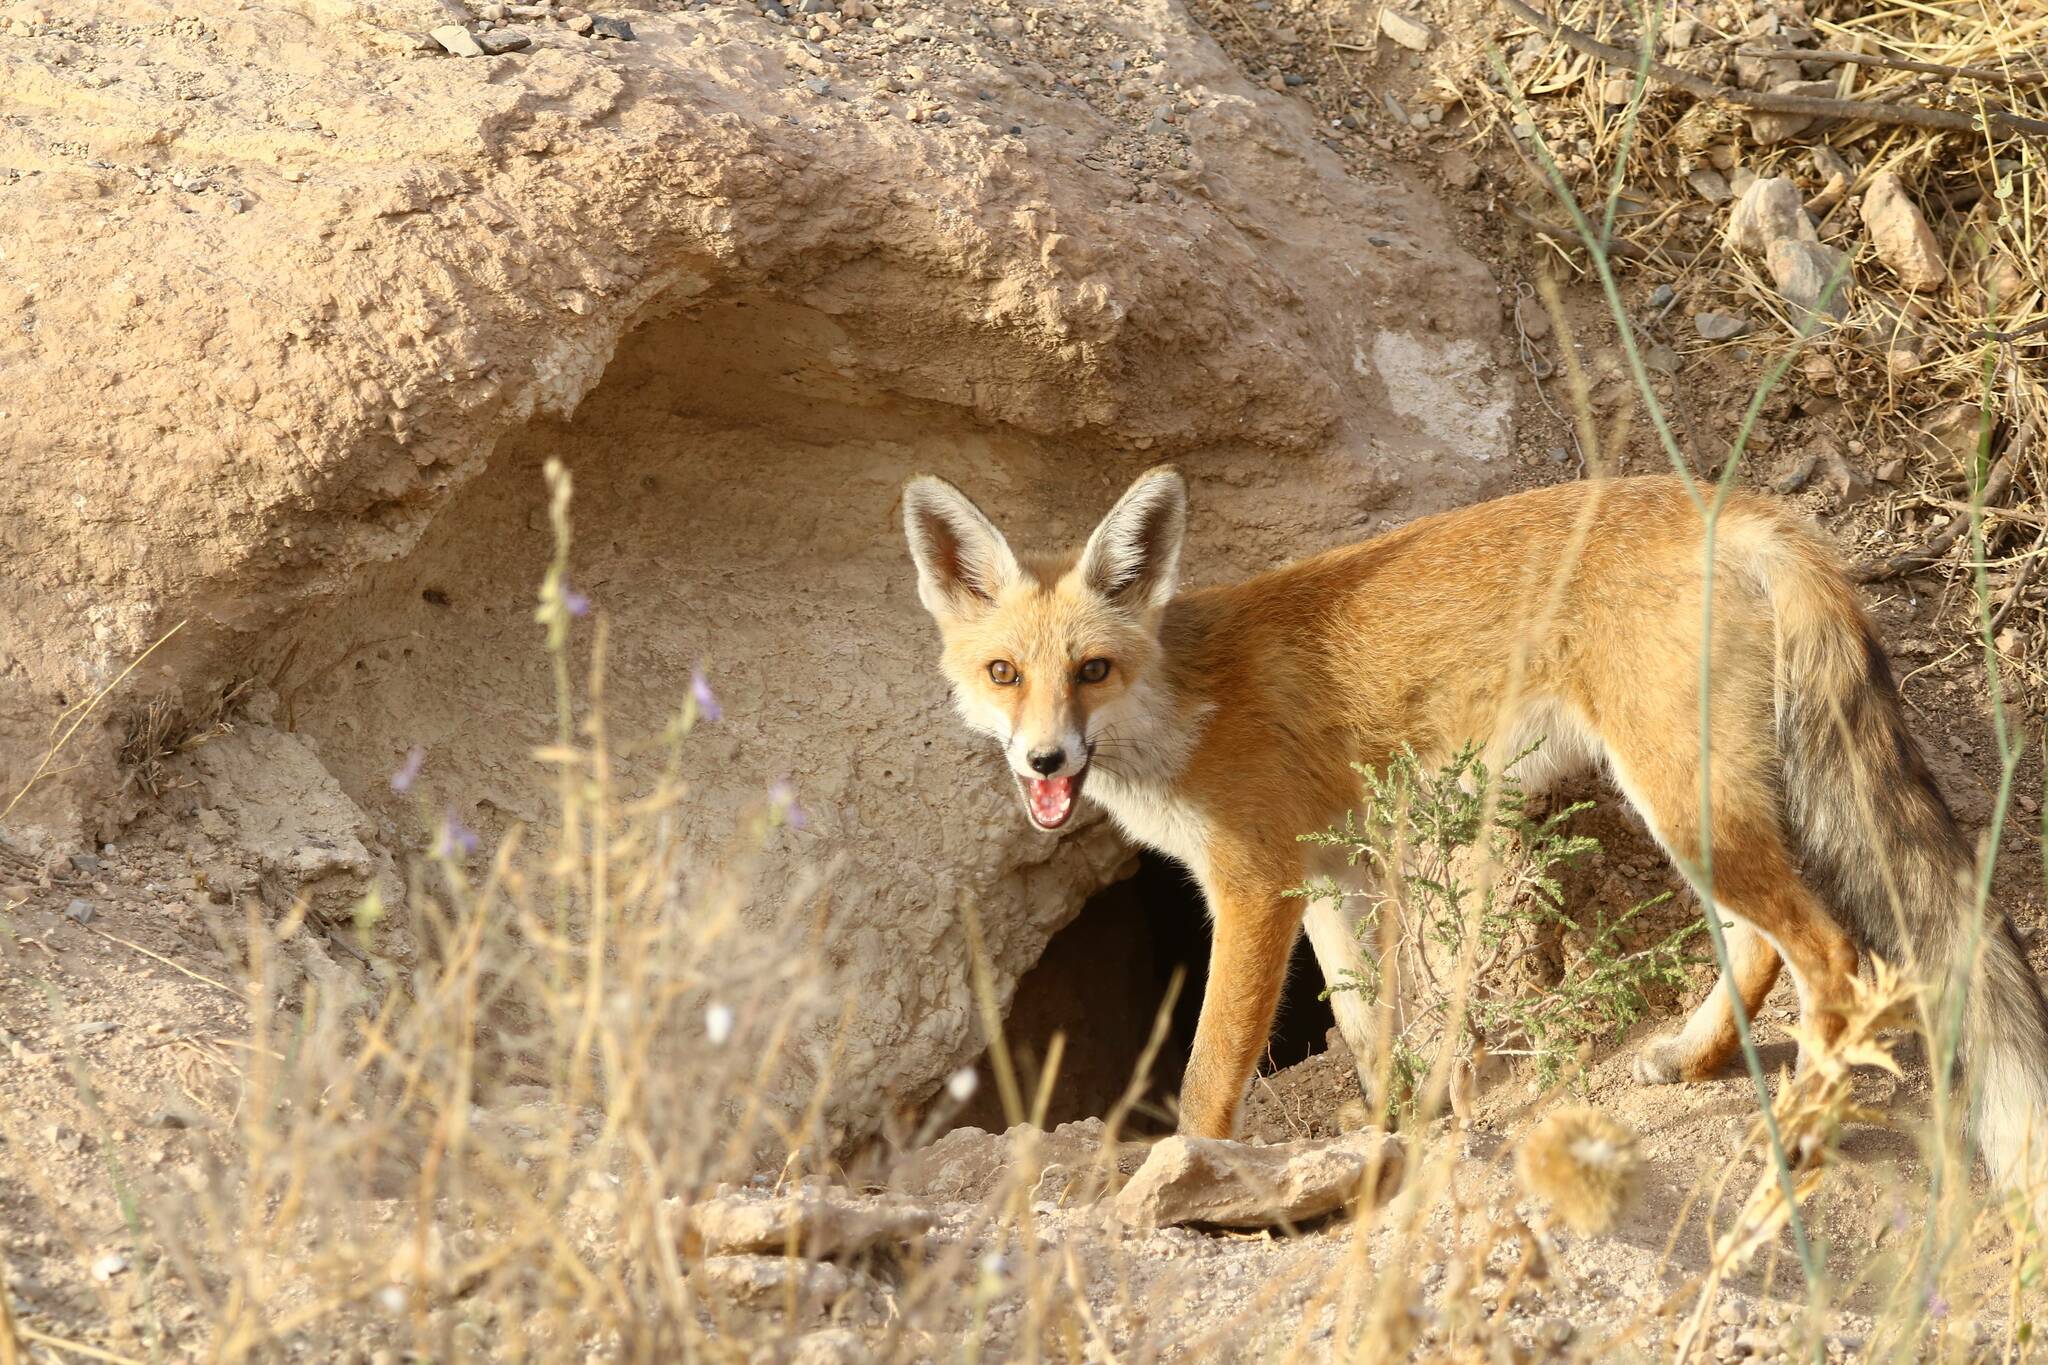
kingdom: Animalia
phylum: Chordata
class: Mammalia
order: Carnivora
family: Canidae
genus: Vulpes
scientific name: Vulpes vulpes
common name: Red fox
